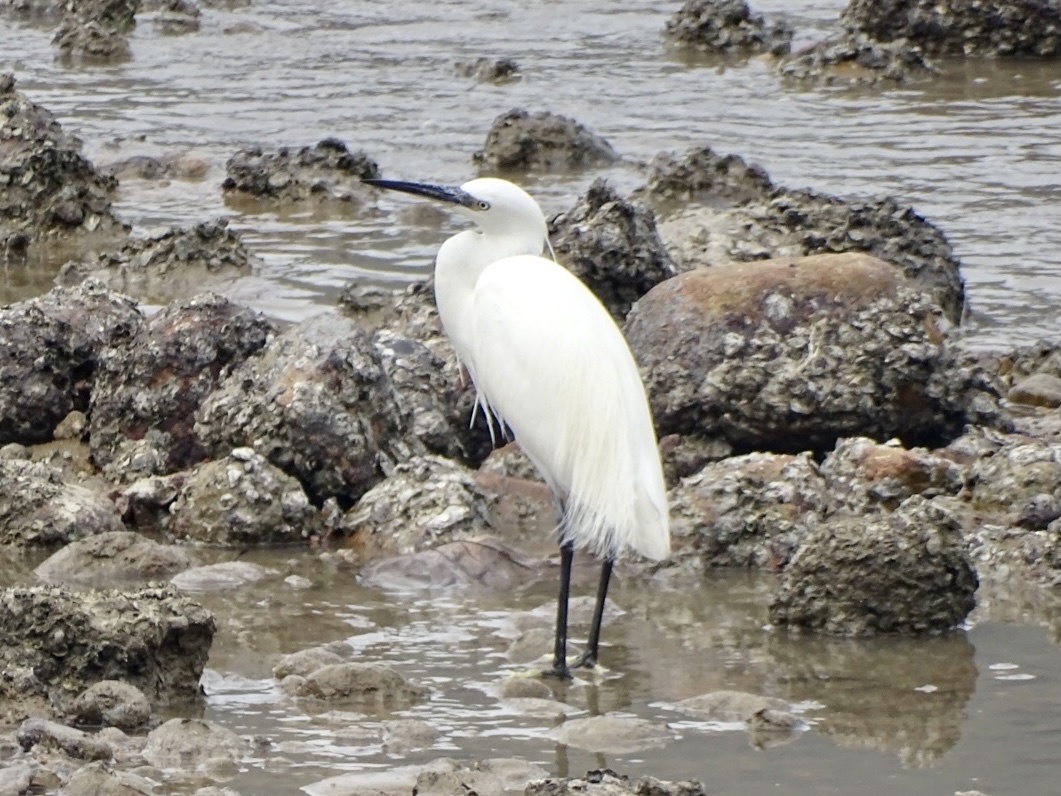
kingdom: Animalia
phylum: Chordata
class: Aves
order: Pelecaniformes
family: Ardeidae
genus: Egretta
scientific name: Egretta garzetta
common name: Little egret
